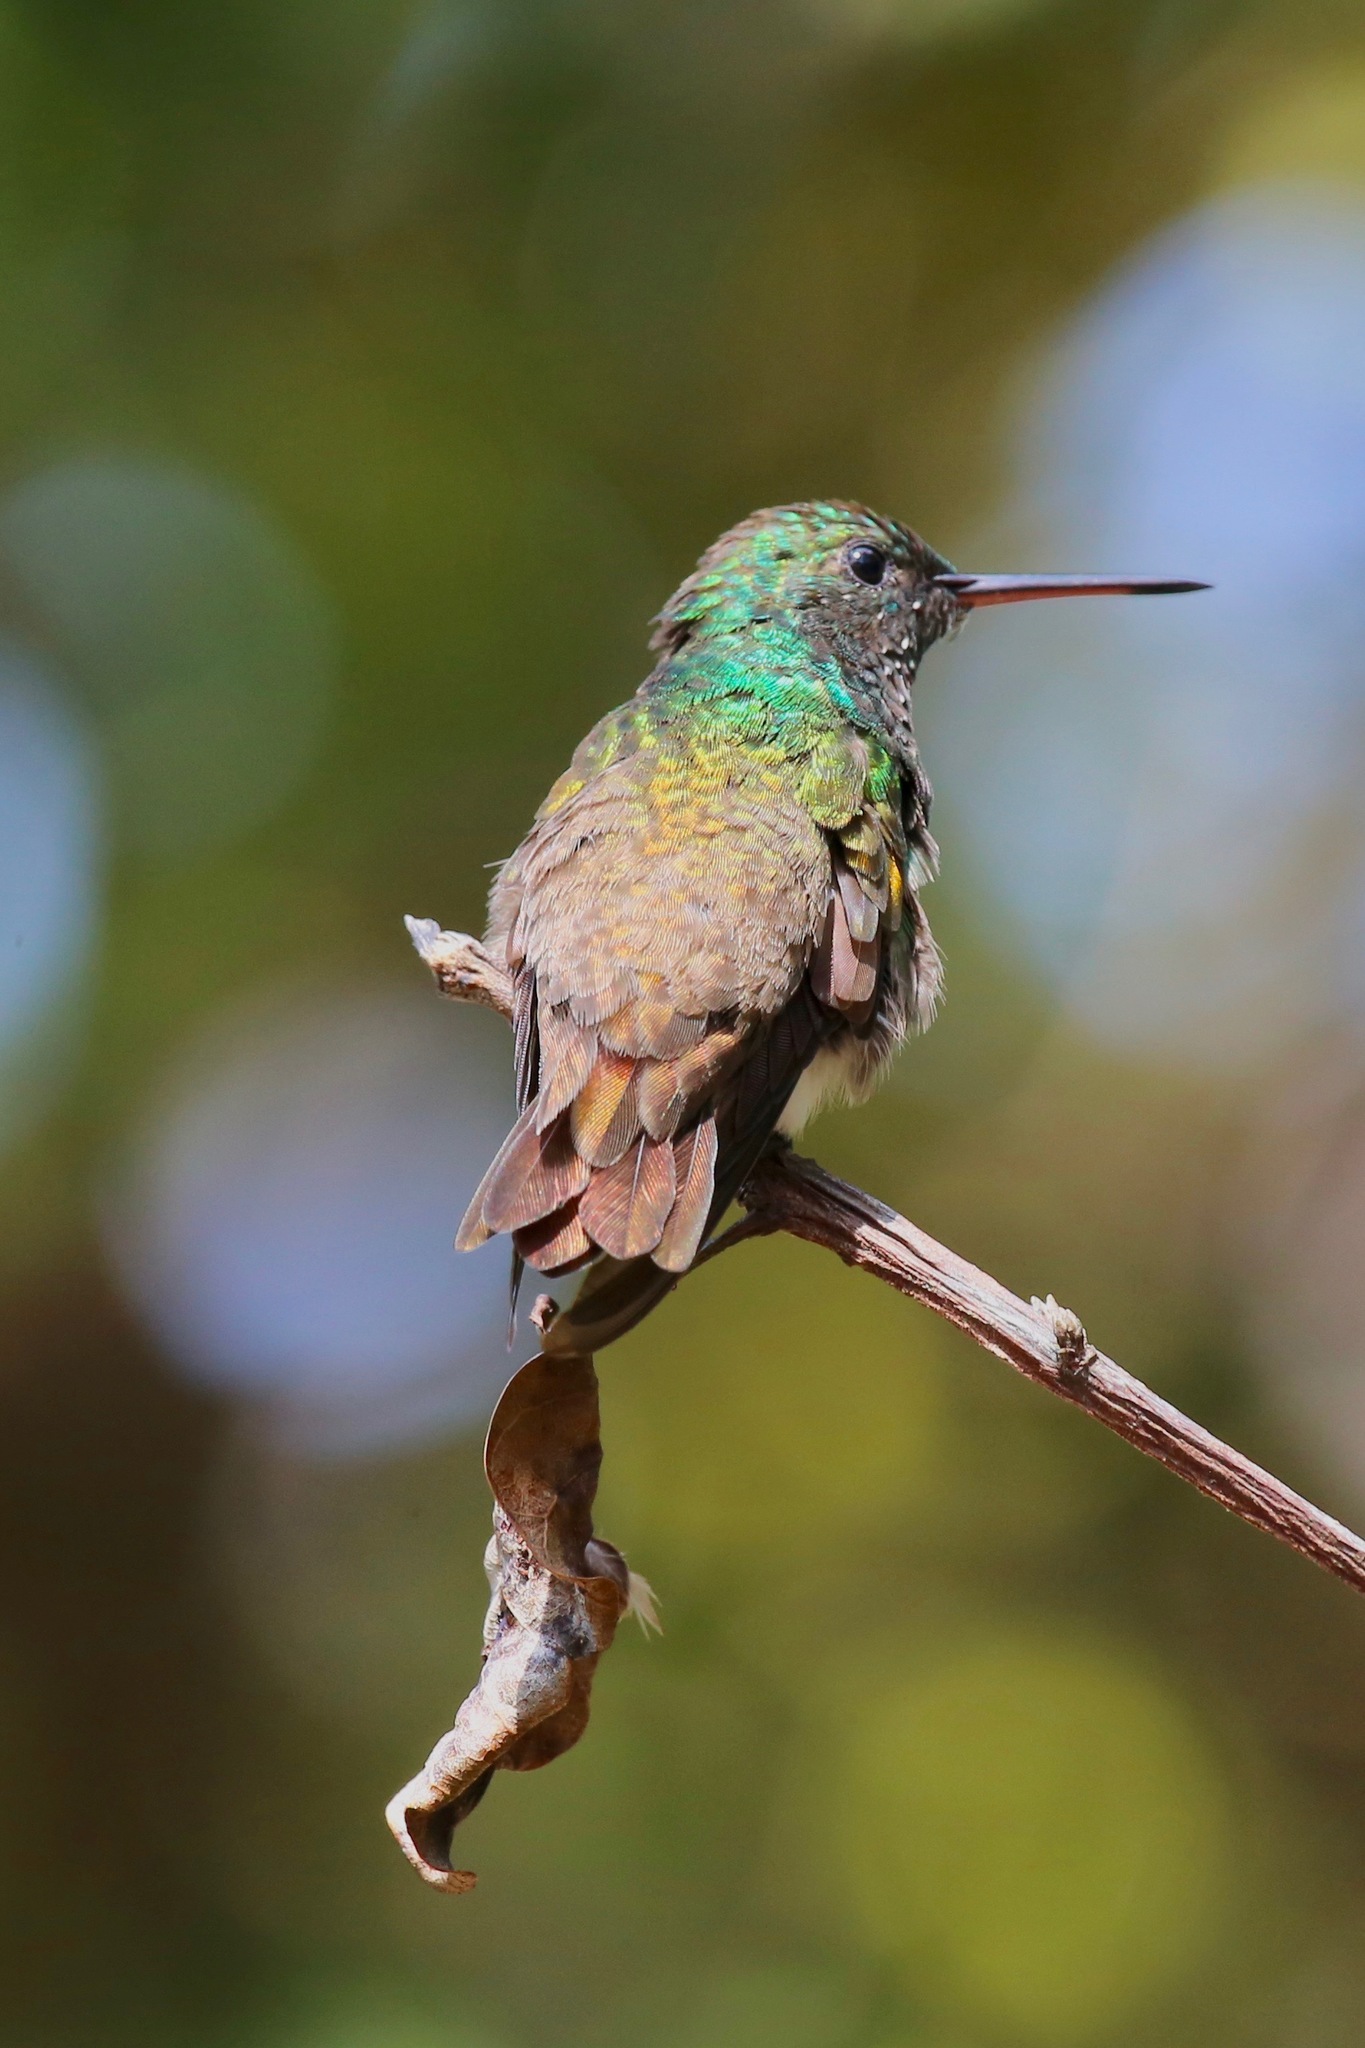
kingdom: Animalia
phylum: Chordata
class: Aves
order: Apodiformes
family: Trochilidae
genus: Saucerottia
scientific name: Saucerottia edward
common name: Snowy-bellied hummingbird
